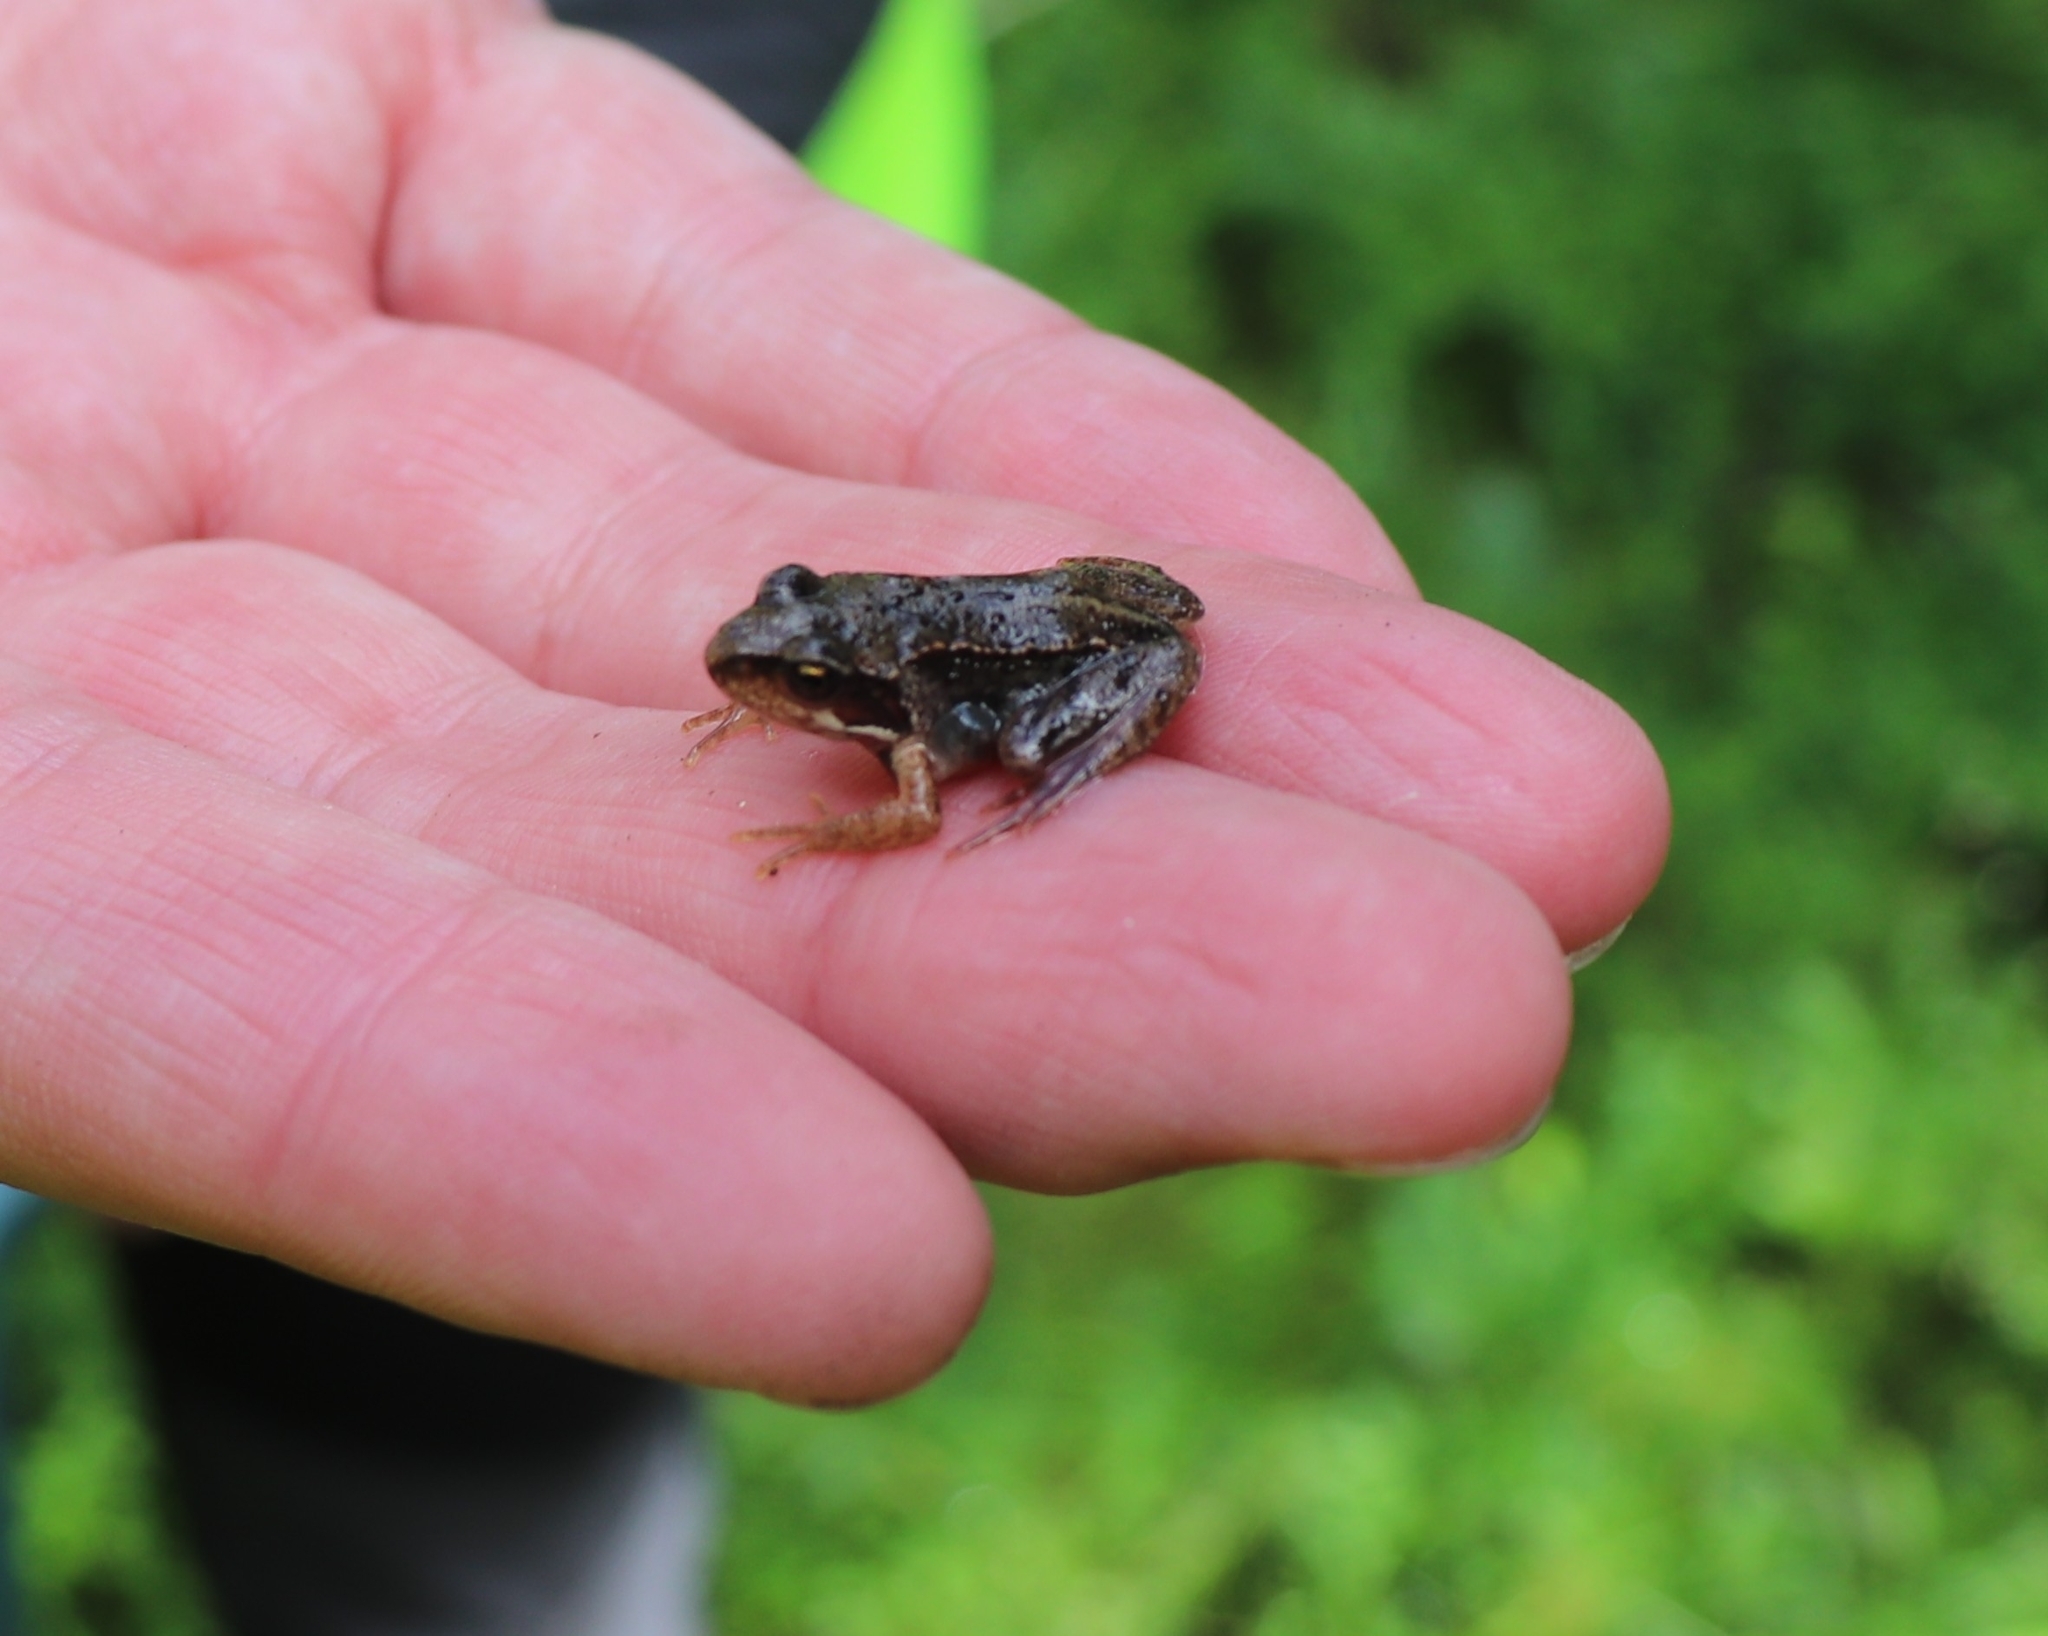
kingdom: Animalia
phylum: Chordata
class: Amphibia
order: Anura
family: Ranidae
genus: Rana
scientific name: Rana temporaria
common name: Common frog
